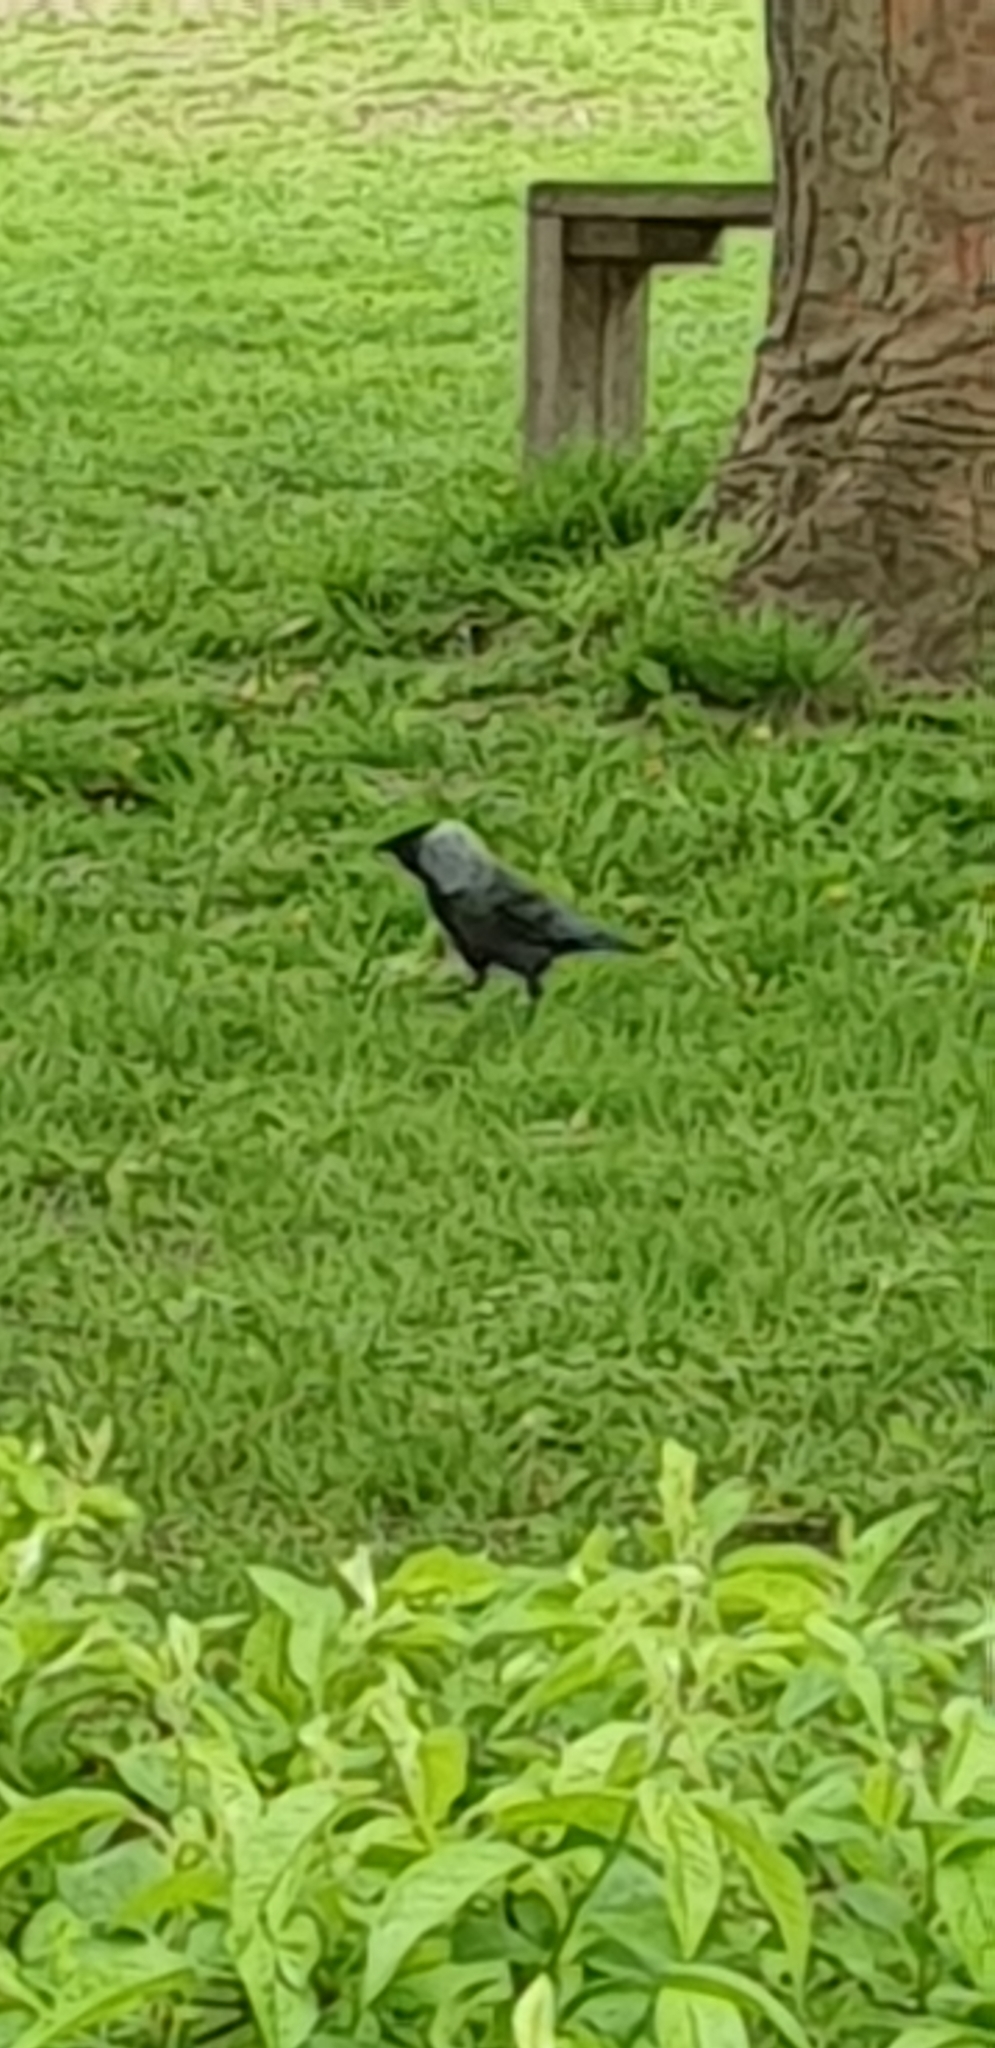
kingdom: Animalia
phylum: Chordata
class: Aves
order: Passeriformes
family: Corvidae
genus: Coloeus
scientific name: Coloeus monedula
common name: Western jackdaw
